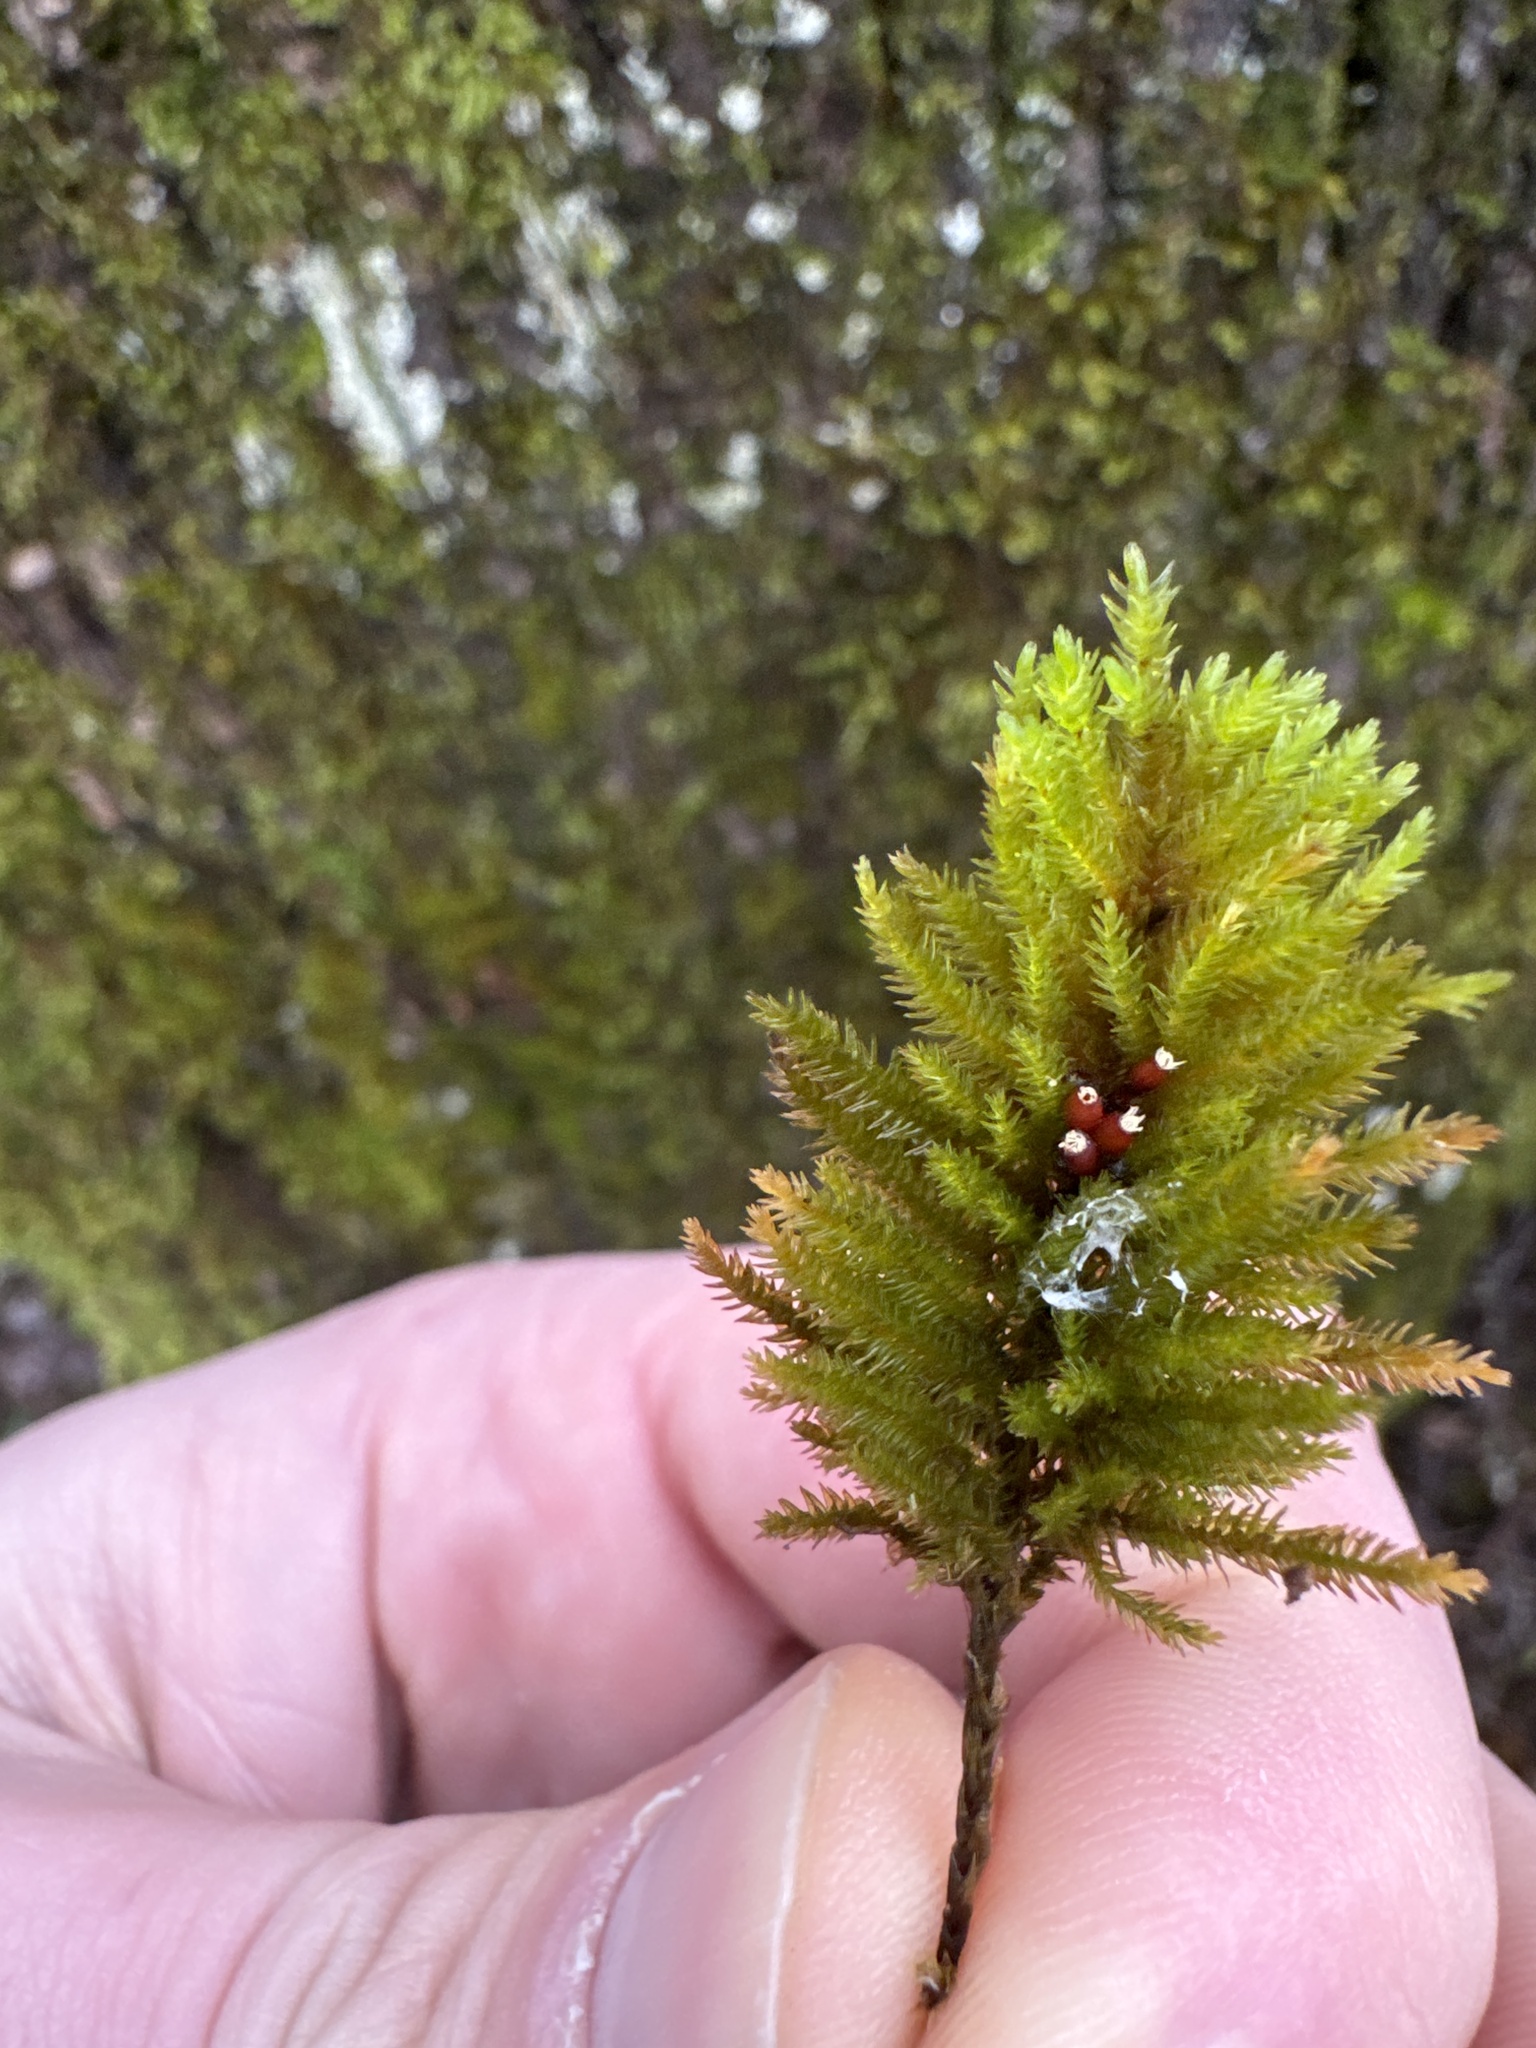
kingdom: Plantae
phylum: Bryophyta
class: Bryopsida
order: Hypnales
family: Cryphaeaceae
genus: Dendroalsia
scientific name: Dendroalsia abietina
